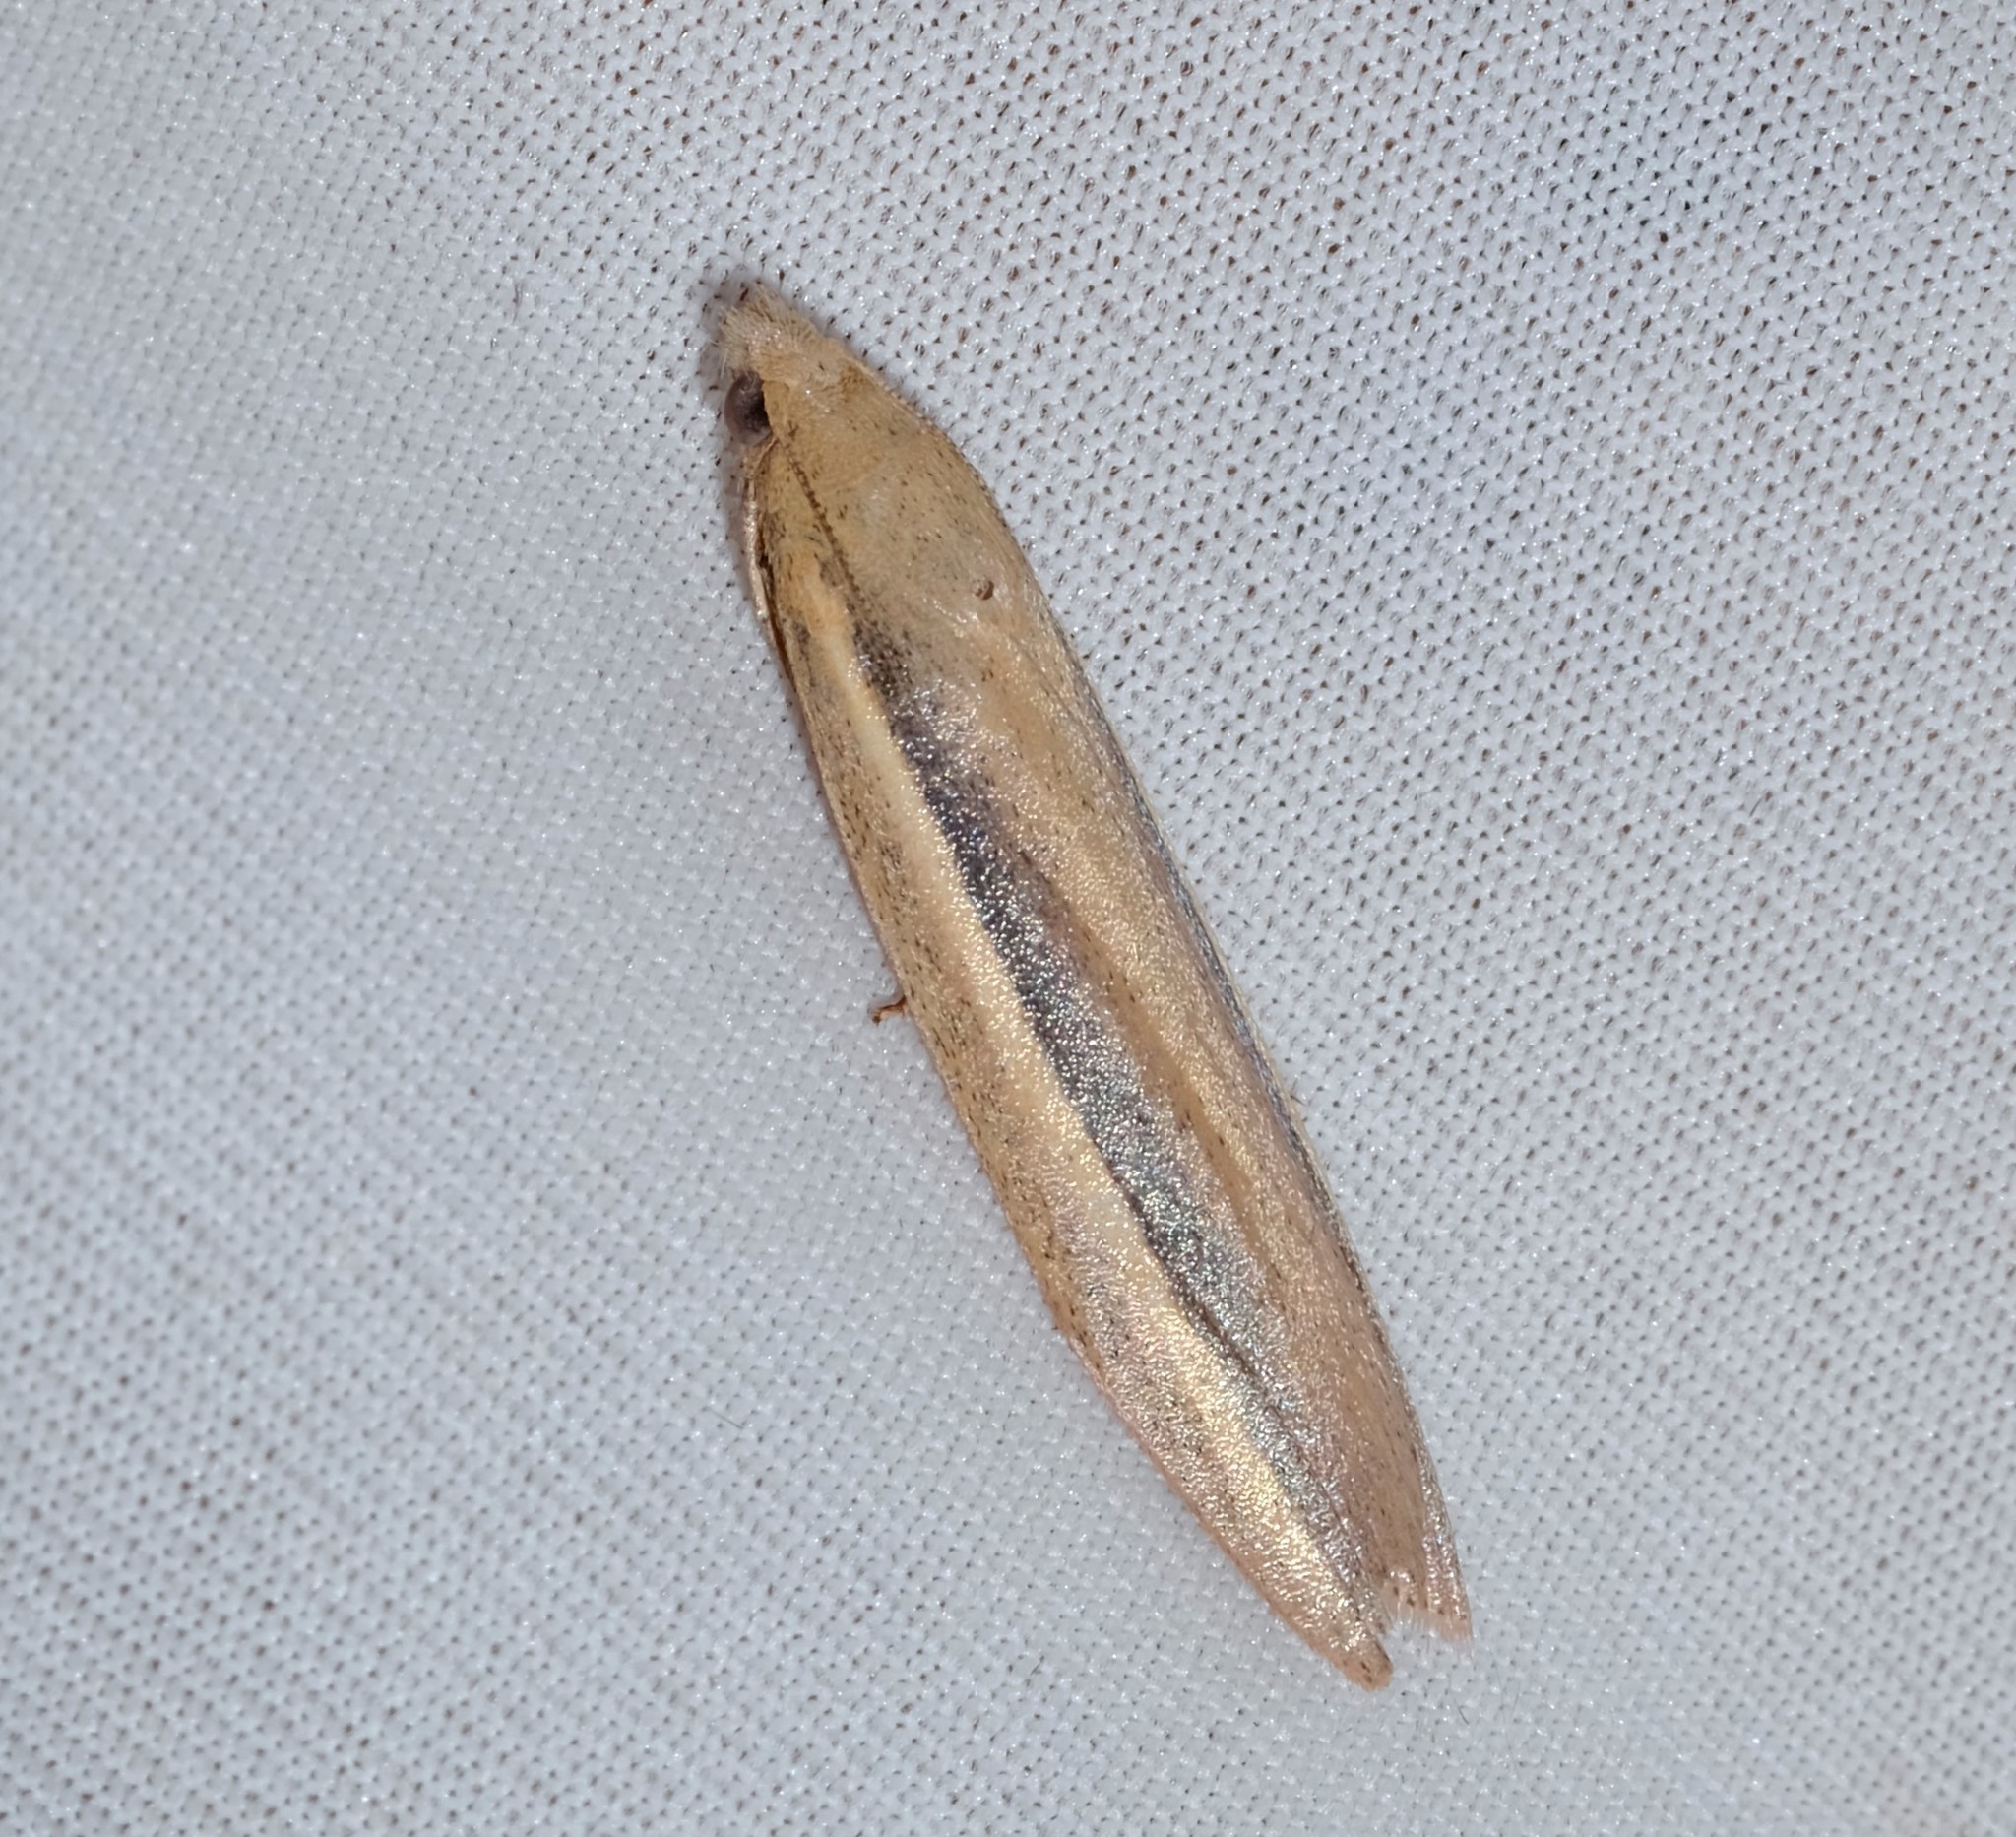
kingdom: Animalia
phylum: Arthropoda
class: Insecta
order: Lepidoptera
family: Pyralidae
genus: Meyriccia
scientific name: Meyriccia latro
